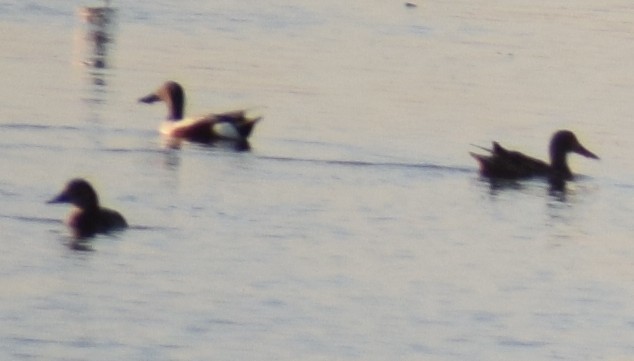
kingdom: Animalia
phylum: Chordata
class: Aves
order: Anseriformes
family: Anatidae
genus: Spatula
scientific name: Spatula clypeata
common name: Northern shoveler
